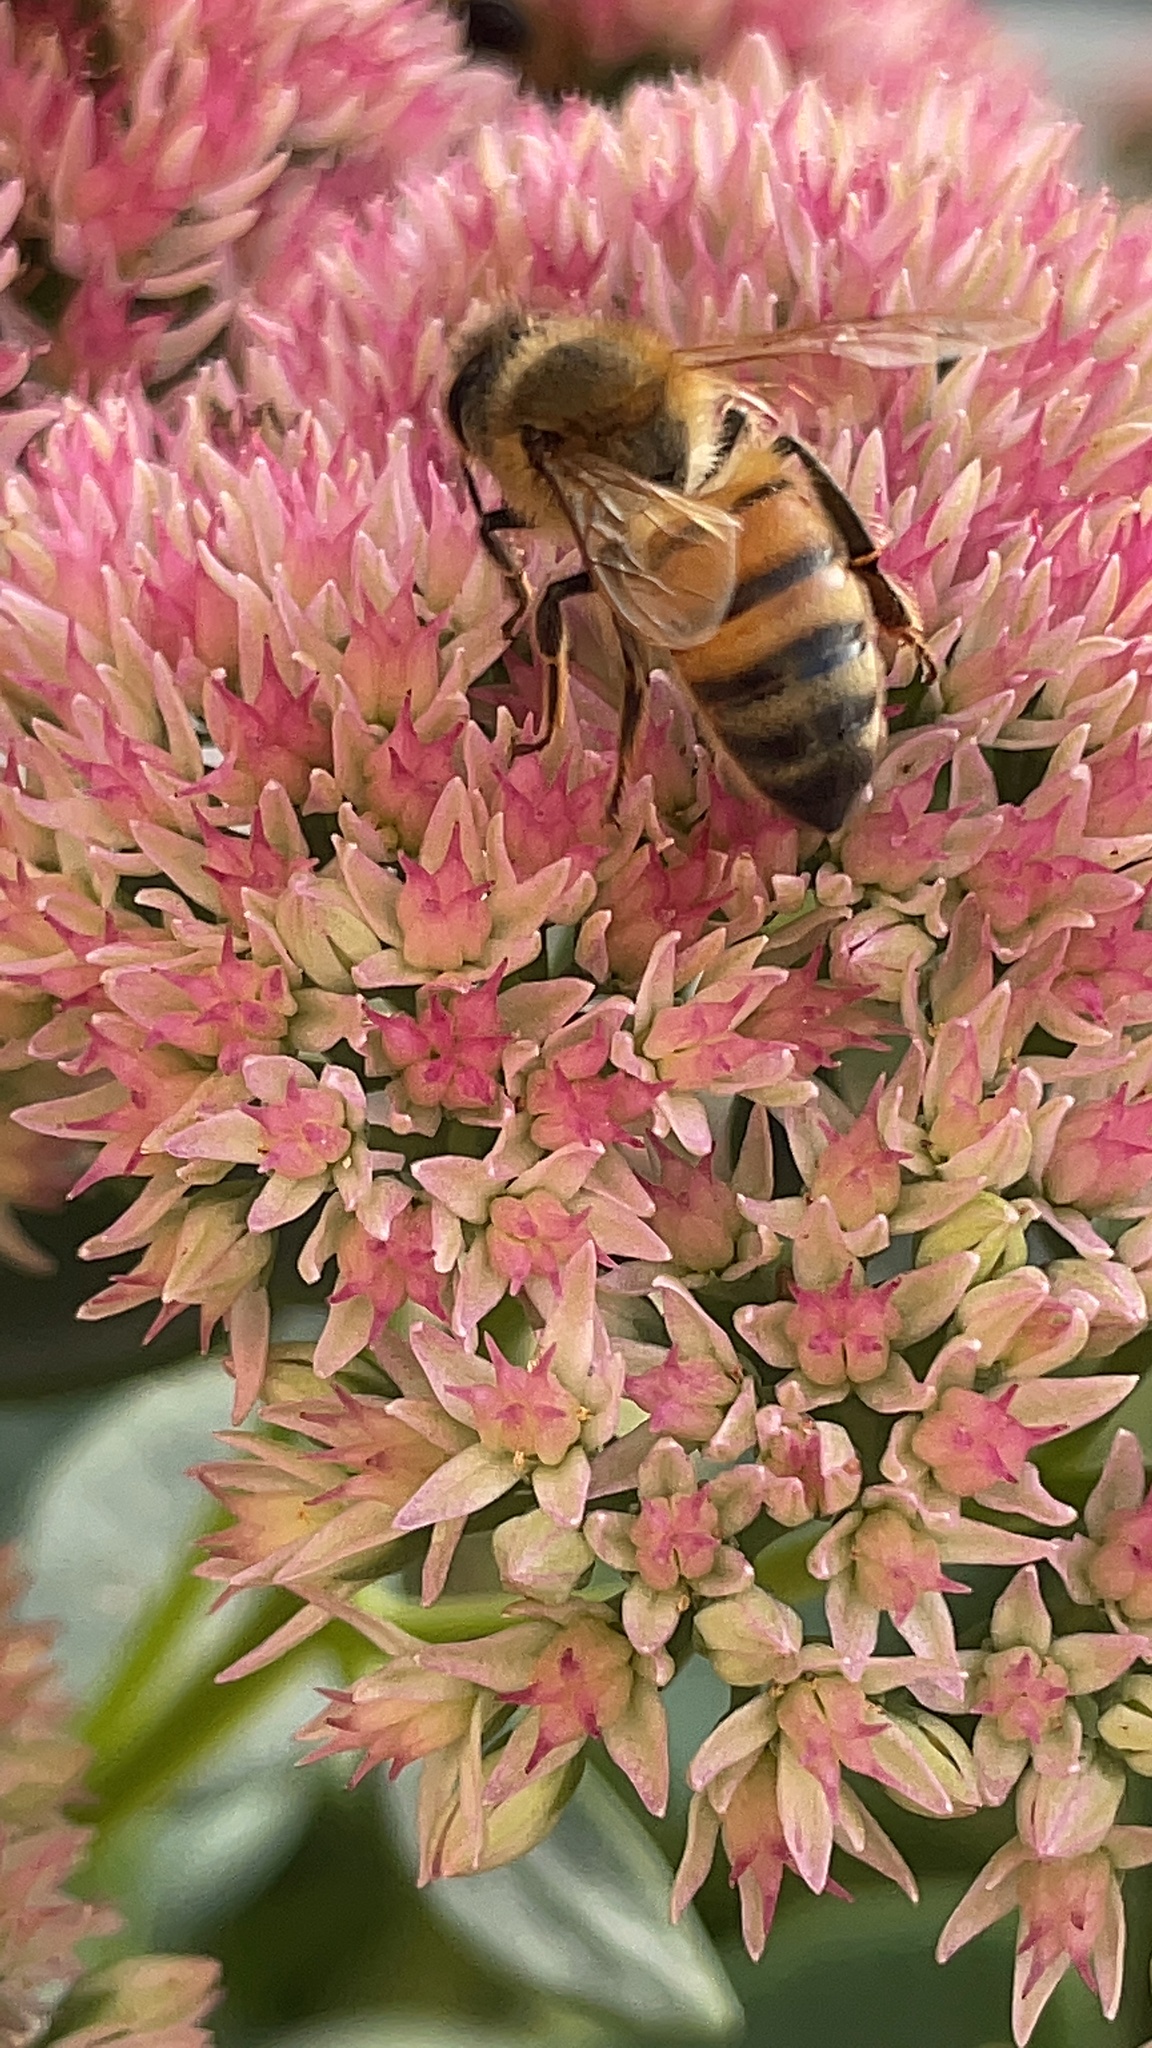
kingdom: Animalia
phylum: Arthropoda
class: Insecta
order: Hymenoptera
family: Apidae
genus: Apis
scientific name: Apis mellifera
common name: Honey bee
